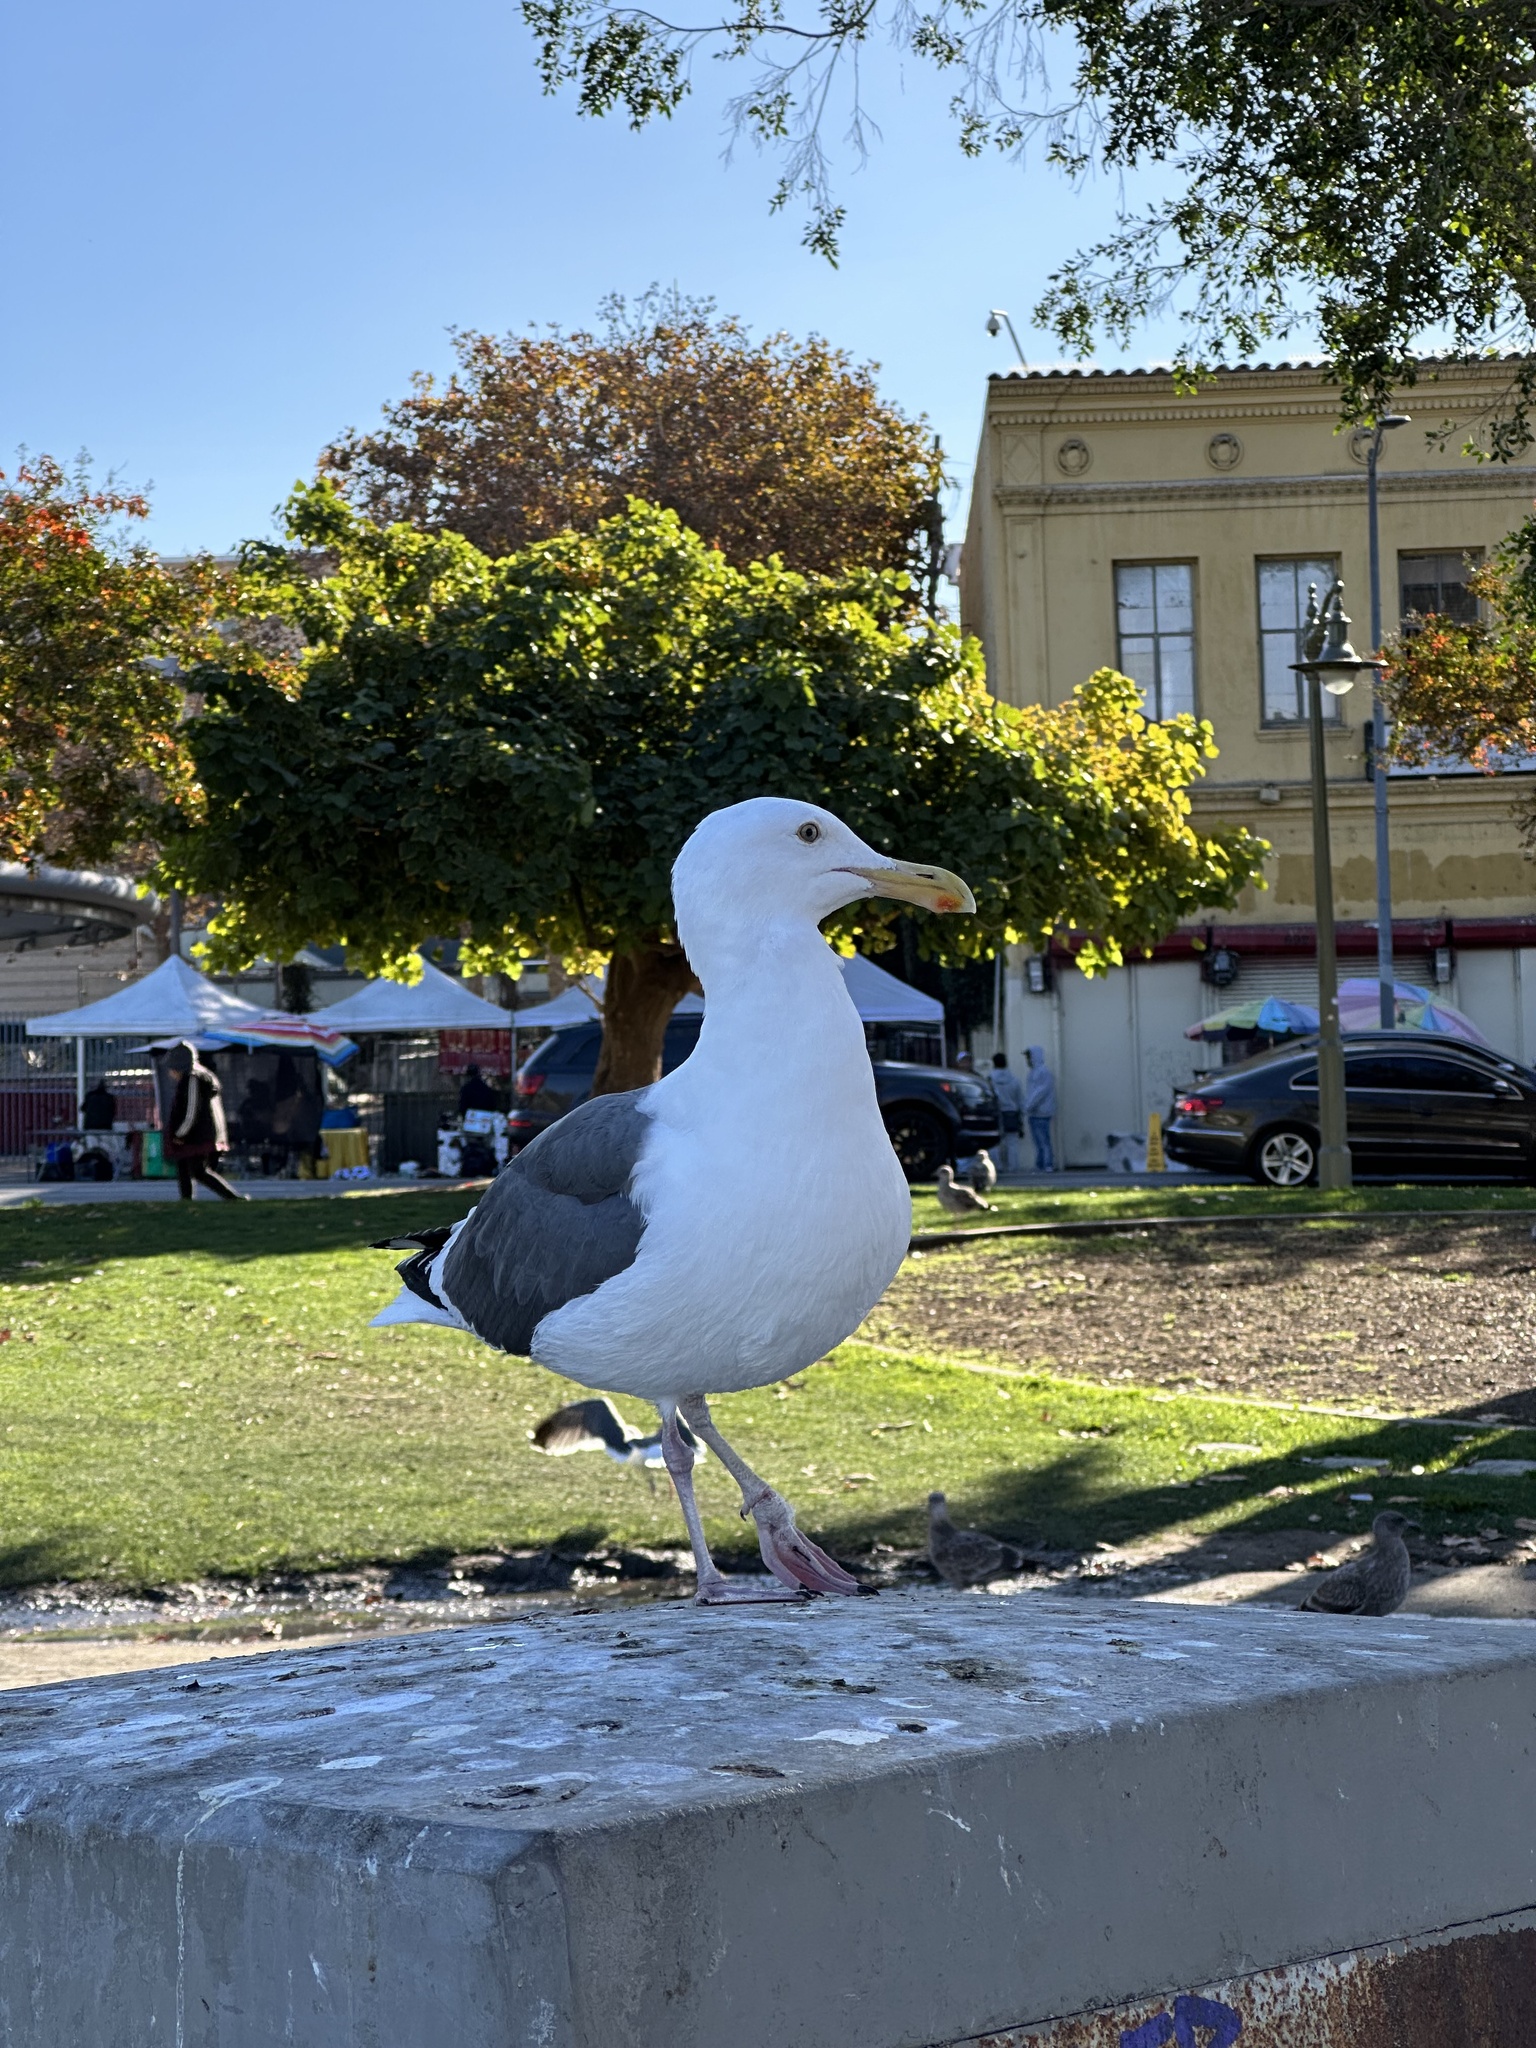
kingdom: Animalia
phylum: Chordata
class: Aves
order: Charadriiformes
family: Laridae
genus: Larus
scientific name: Larus occidentalis
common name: Western gull
